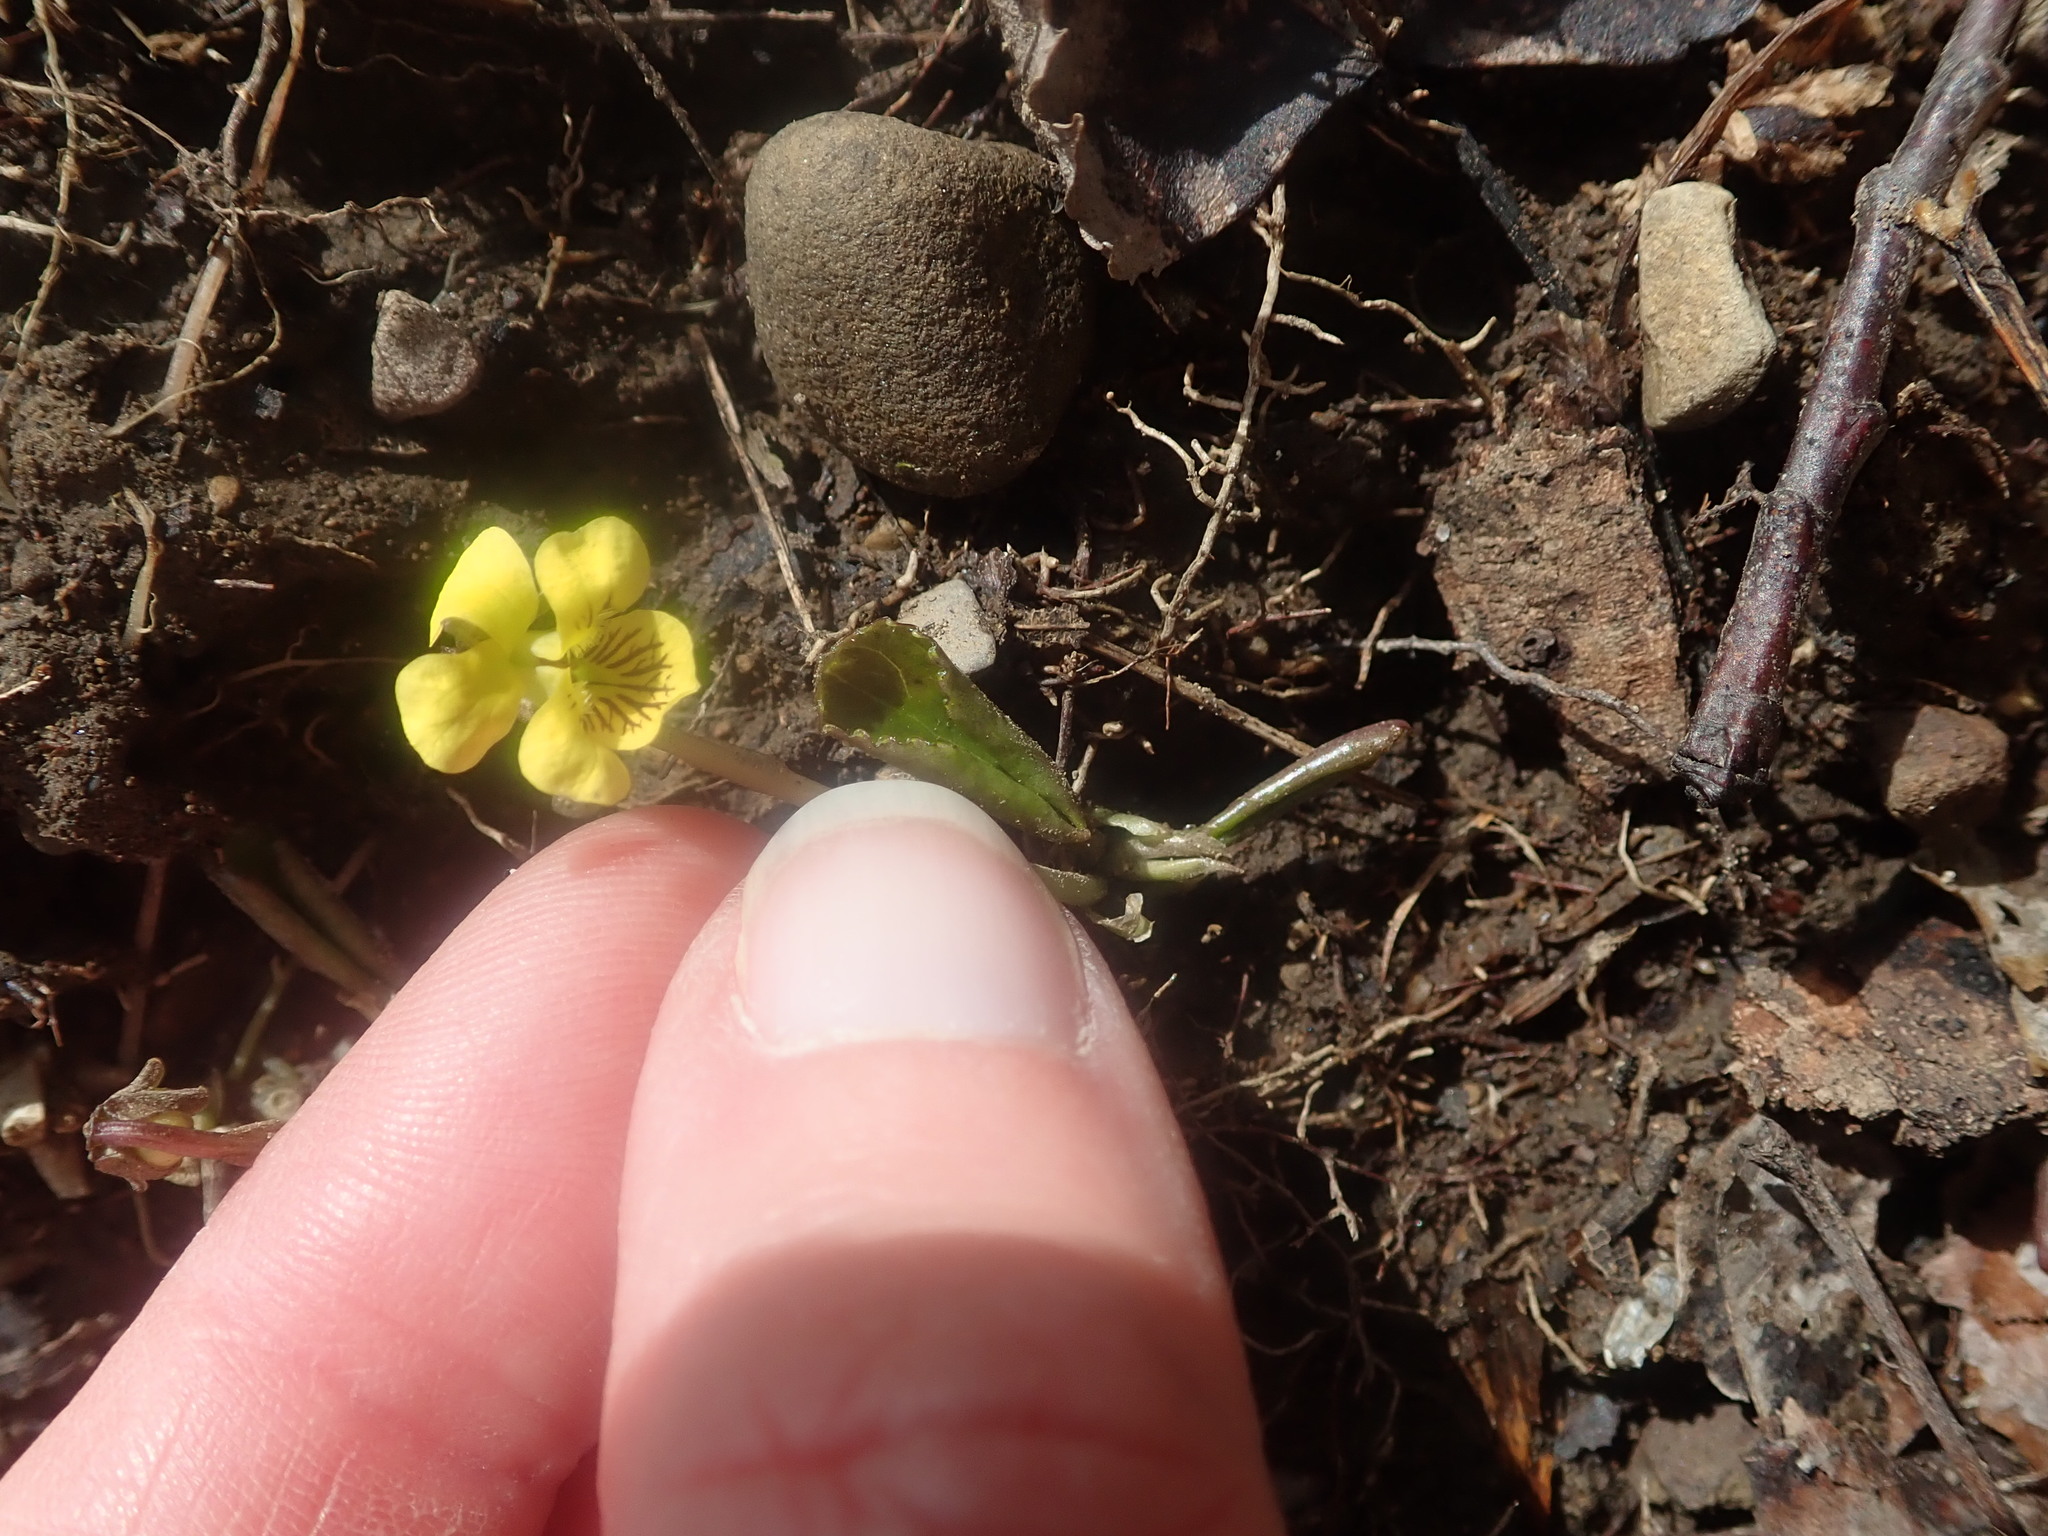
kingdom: Plantae
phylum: Tracheophyta
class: Magnoliopsida
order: Malpighiales
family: Violaceae
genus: Viola
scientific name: Viola rotundifolia
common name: Early yellow violet
